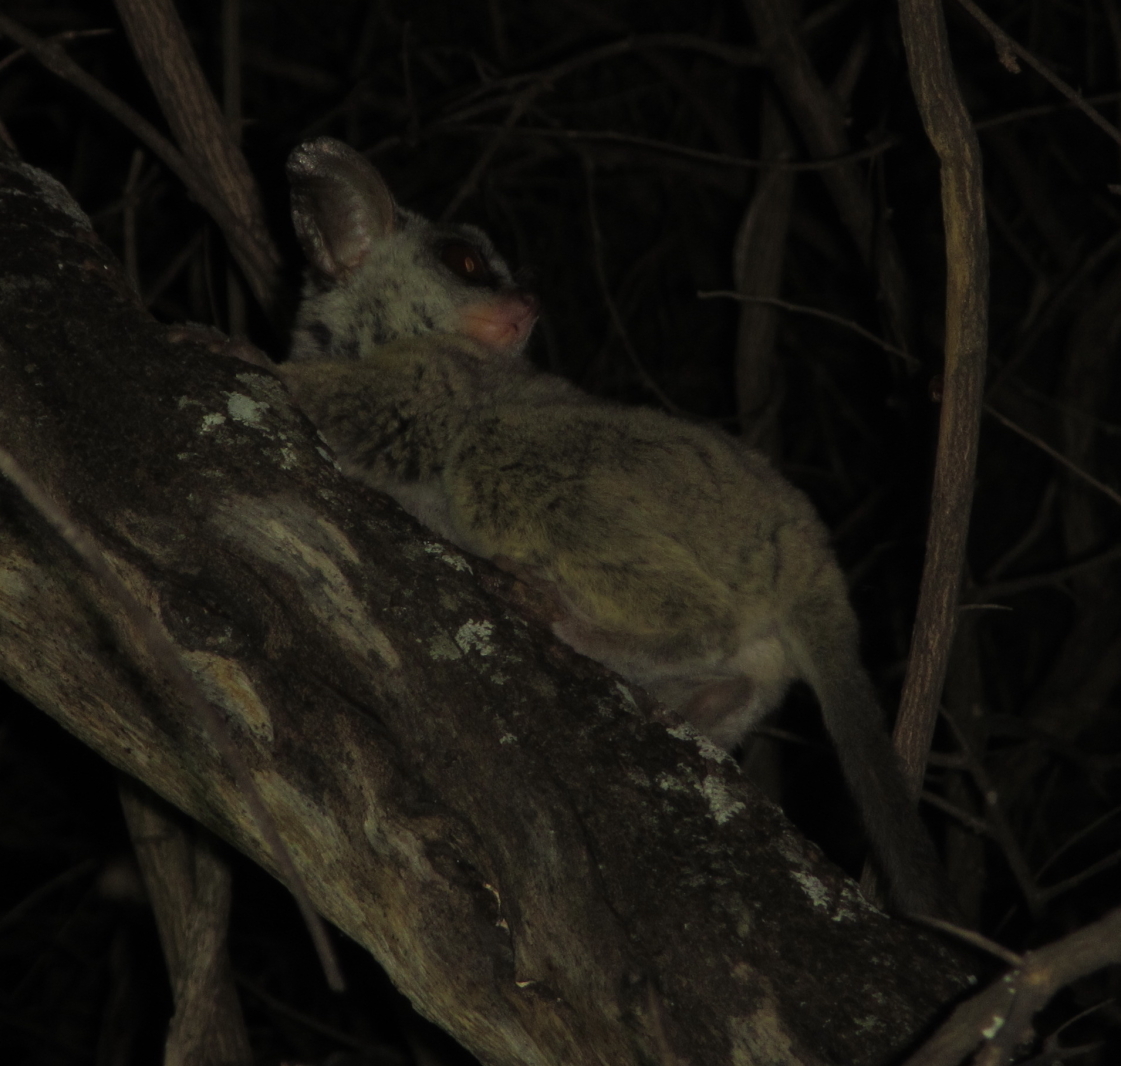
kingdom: Animalia
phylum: Chordata
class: Mammalia
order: Primates
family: Galagidae
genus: Galago
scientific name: Galago moholi
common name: Moholi bushbaby
